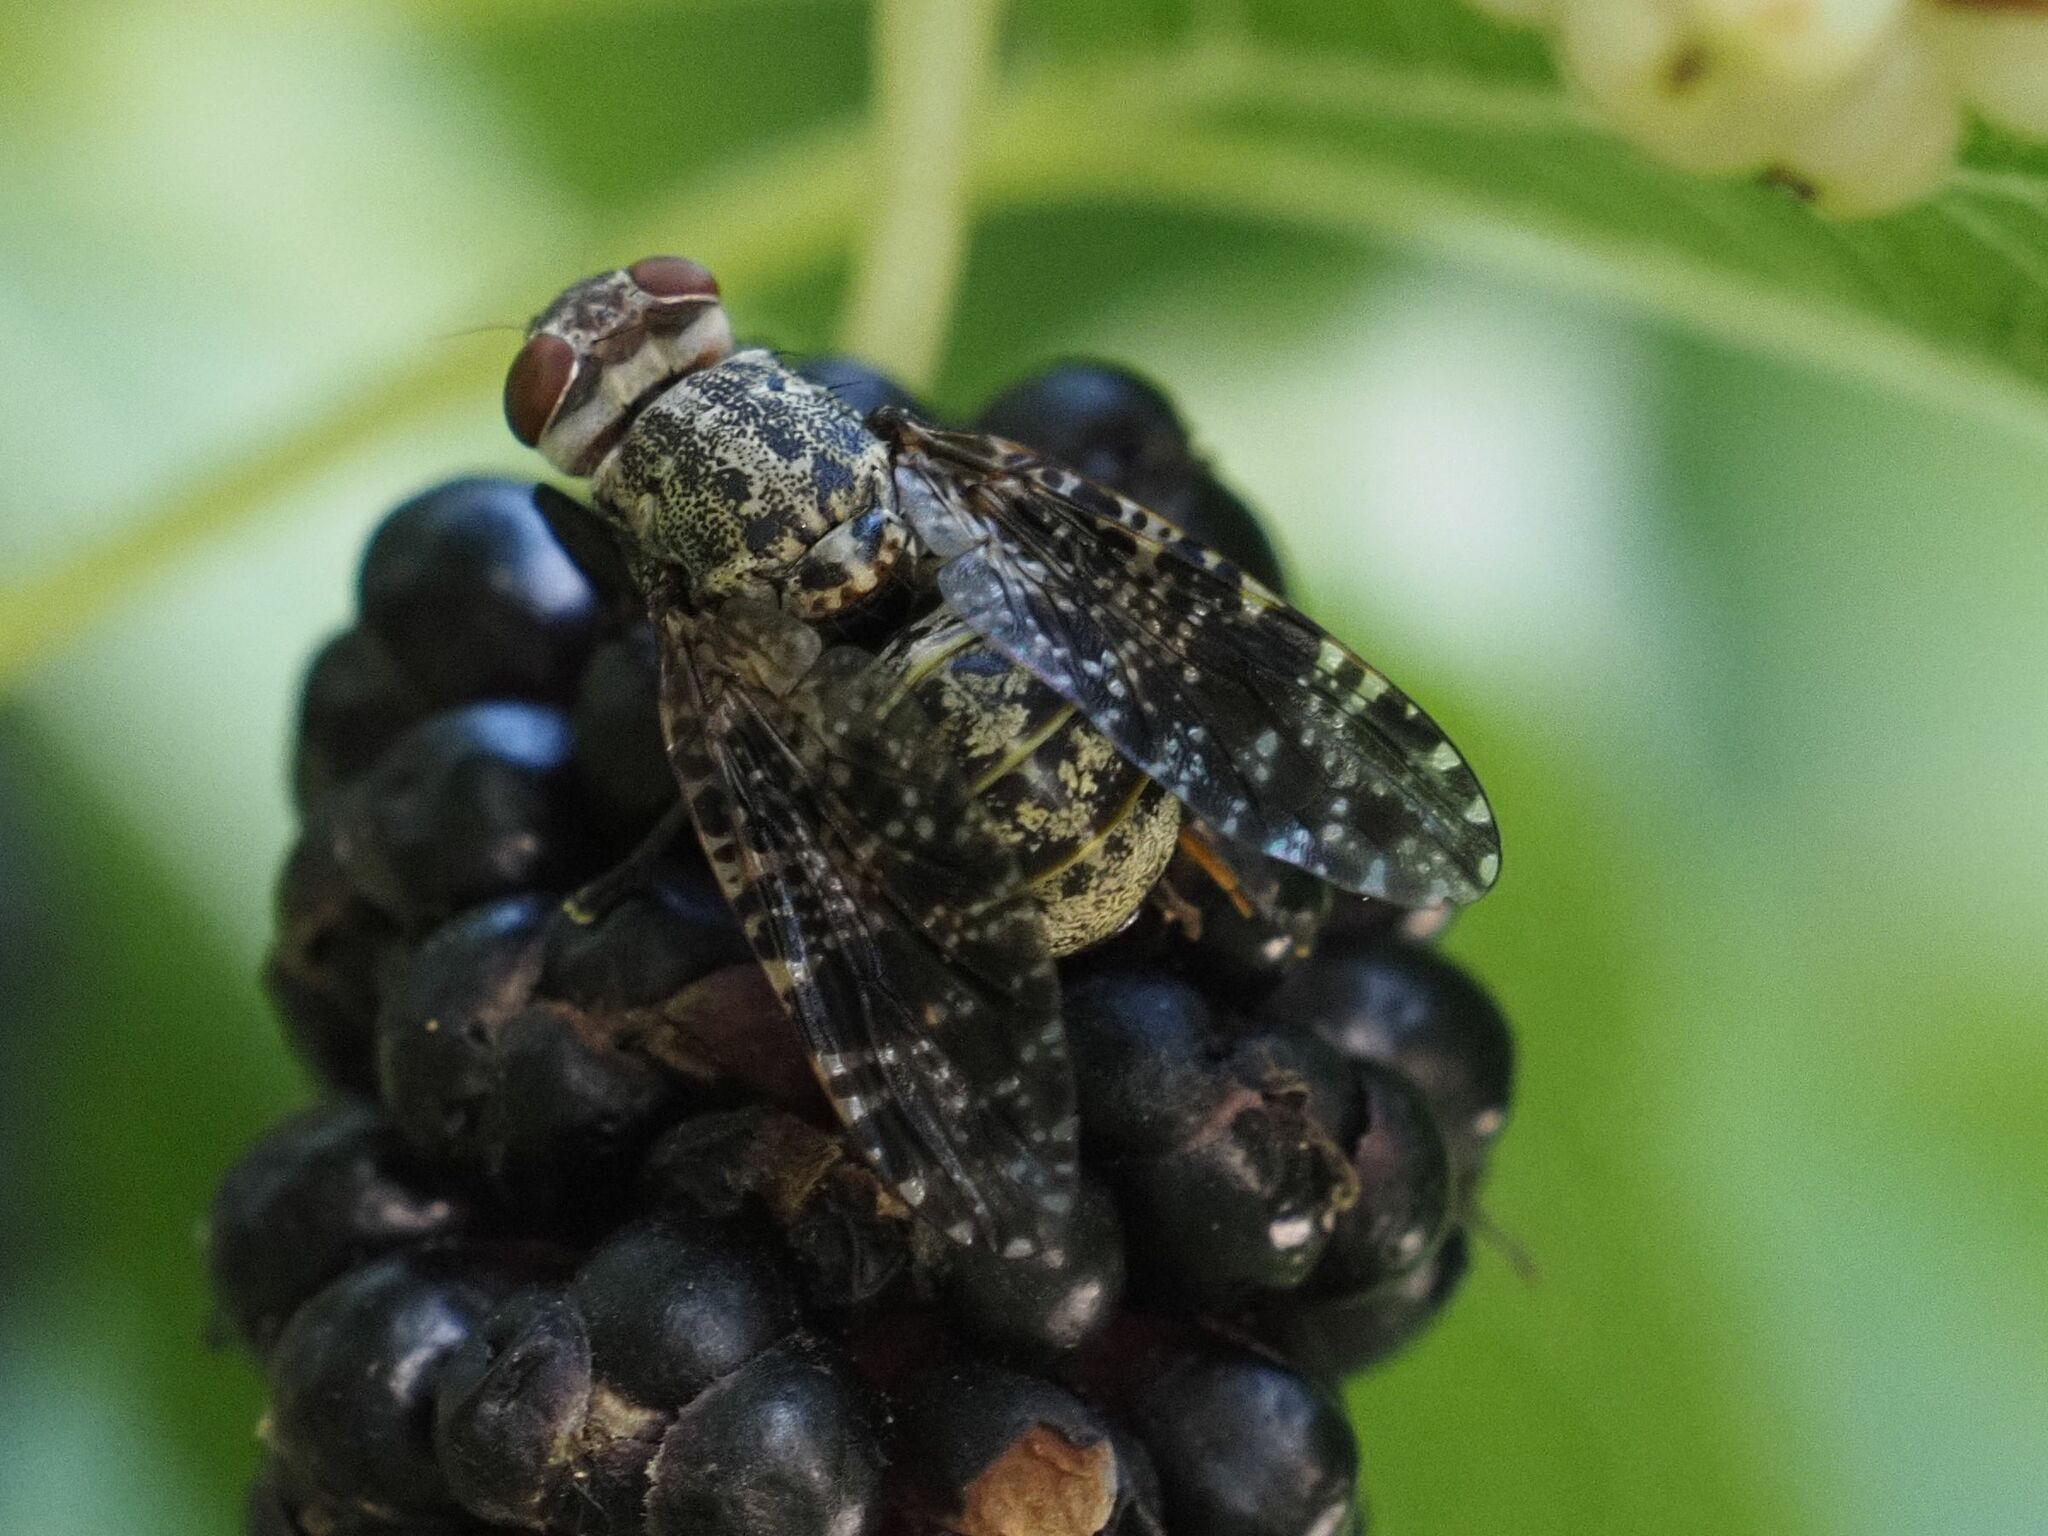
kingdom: Animalia
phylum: Arthropoda
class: Insecta
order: Diptera
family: Platystomatidae
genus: Platystoma
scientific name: Platystoma lugubre
